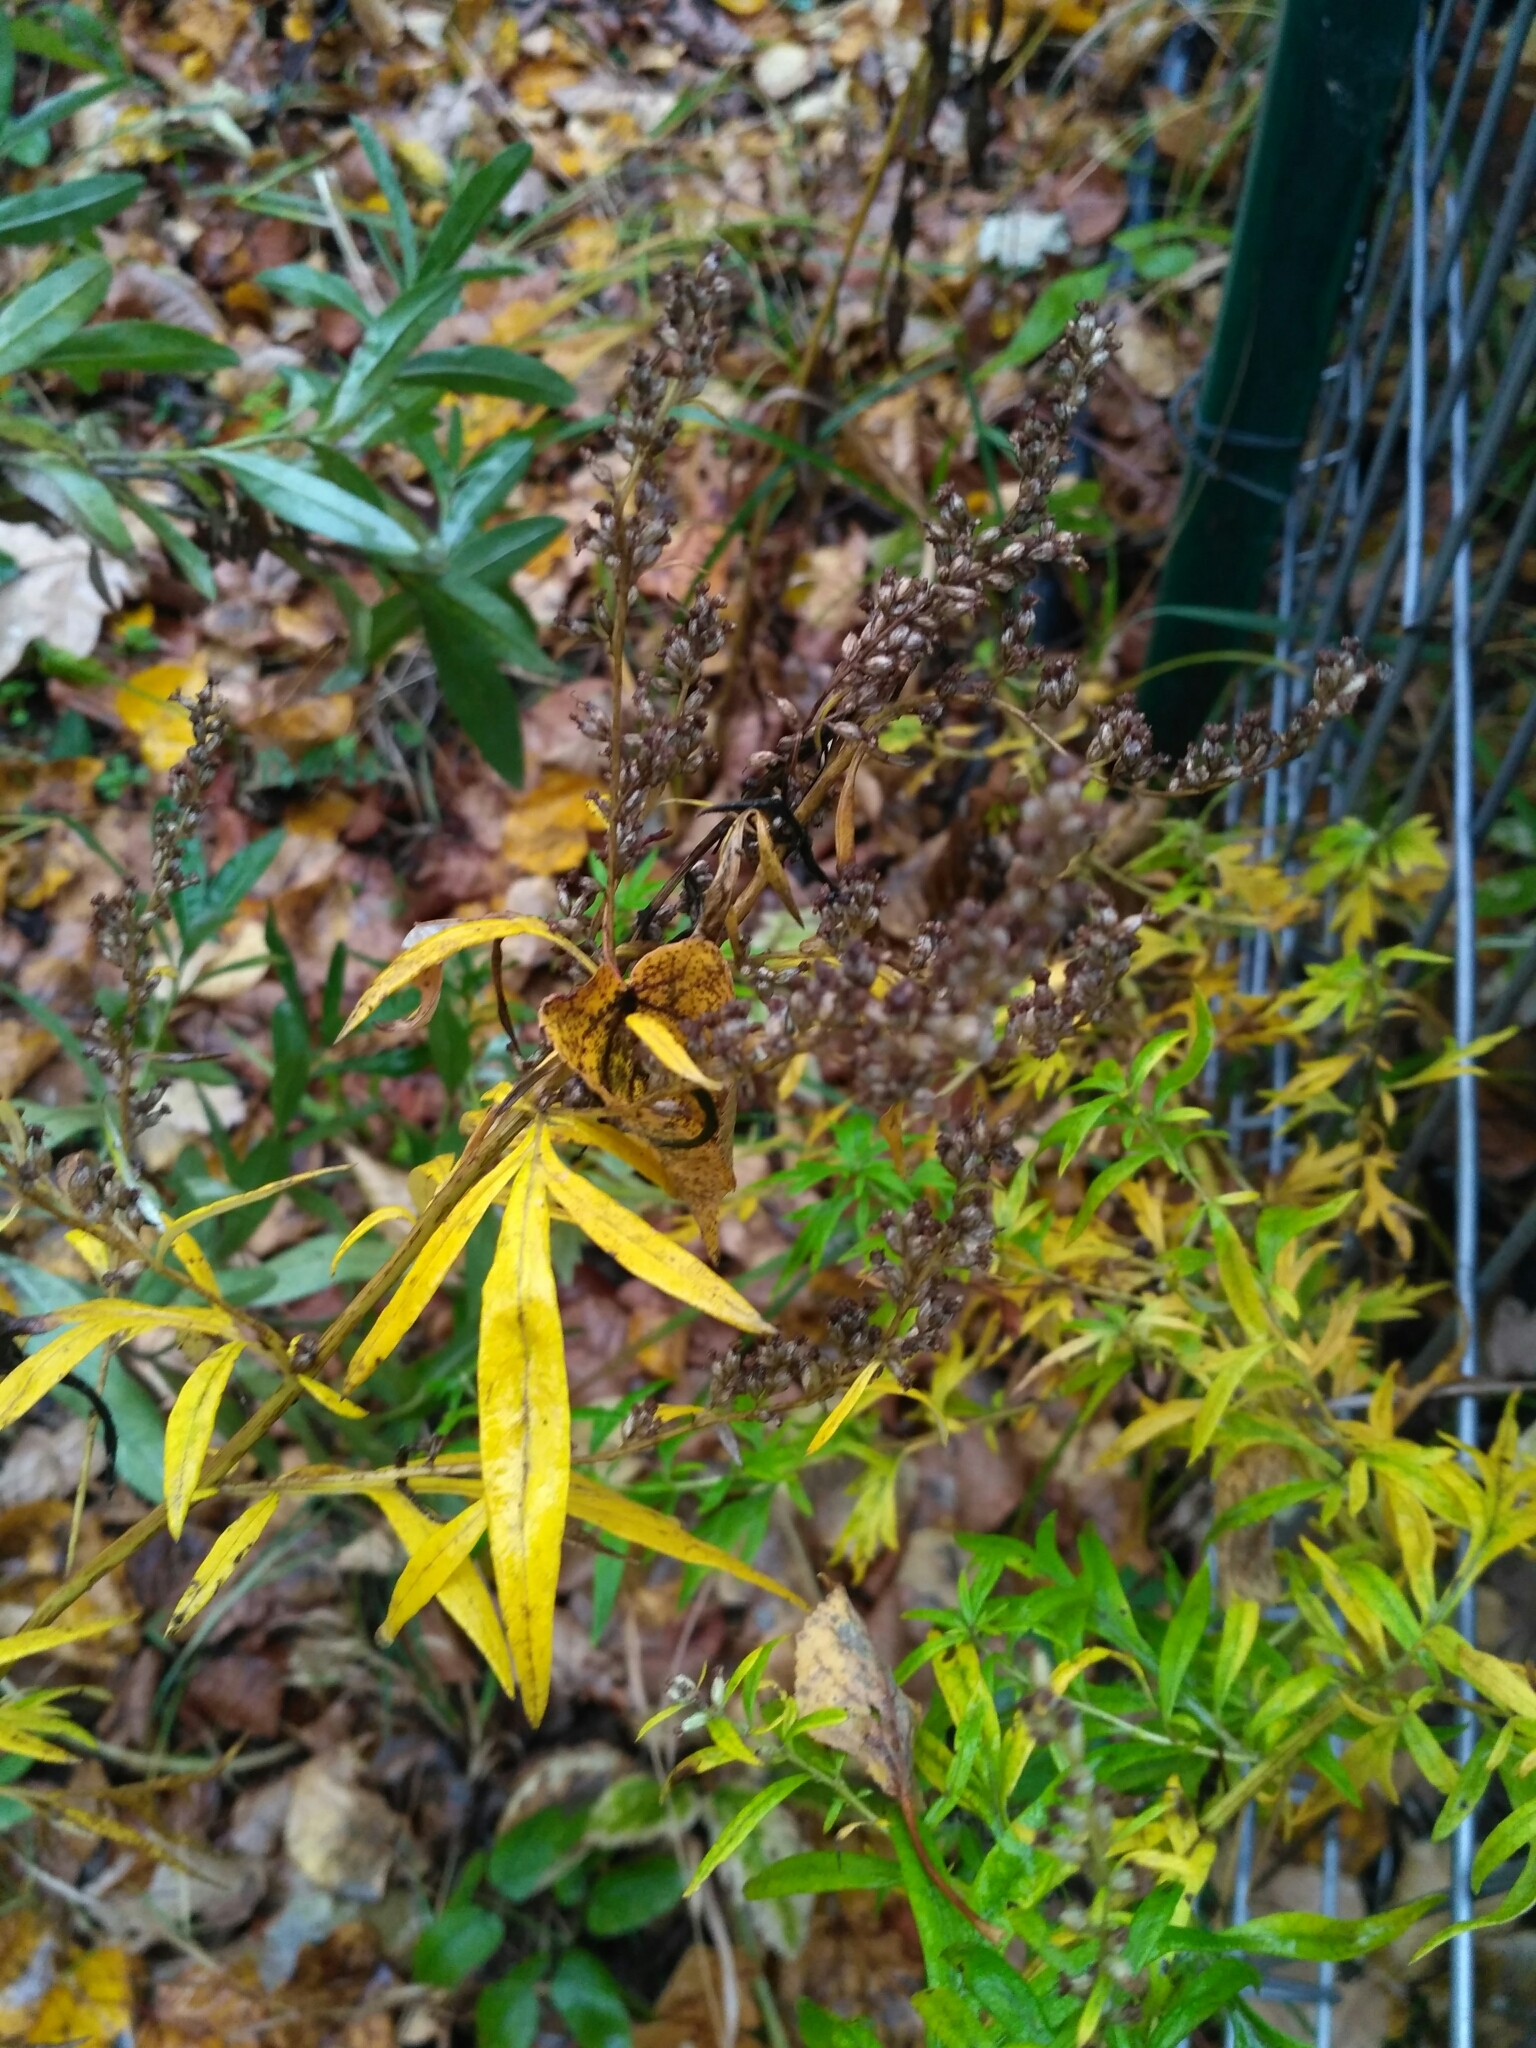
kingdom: Plantae
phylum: Tracheophyta
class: Magnoliopsida
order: Asterales
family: Asteraceae
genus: Artemisia
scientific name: Artemisia vulgaris
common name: Mugwort
